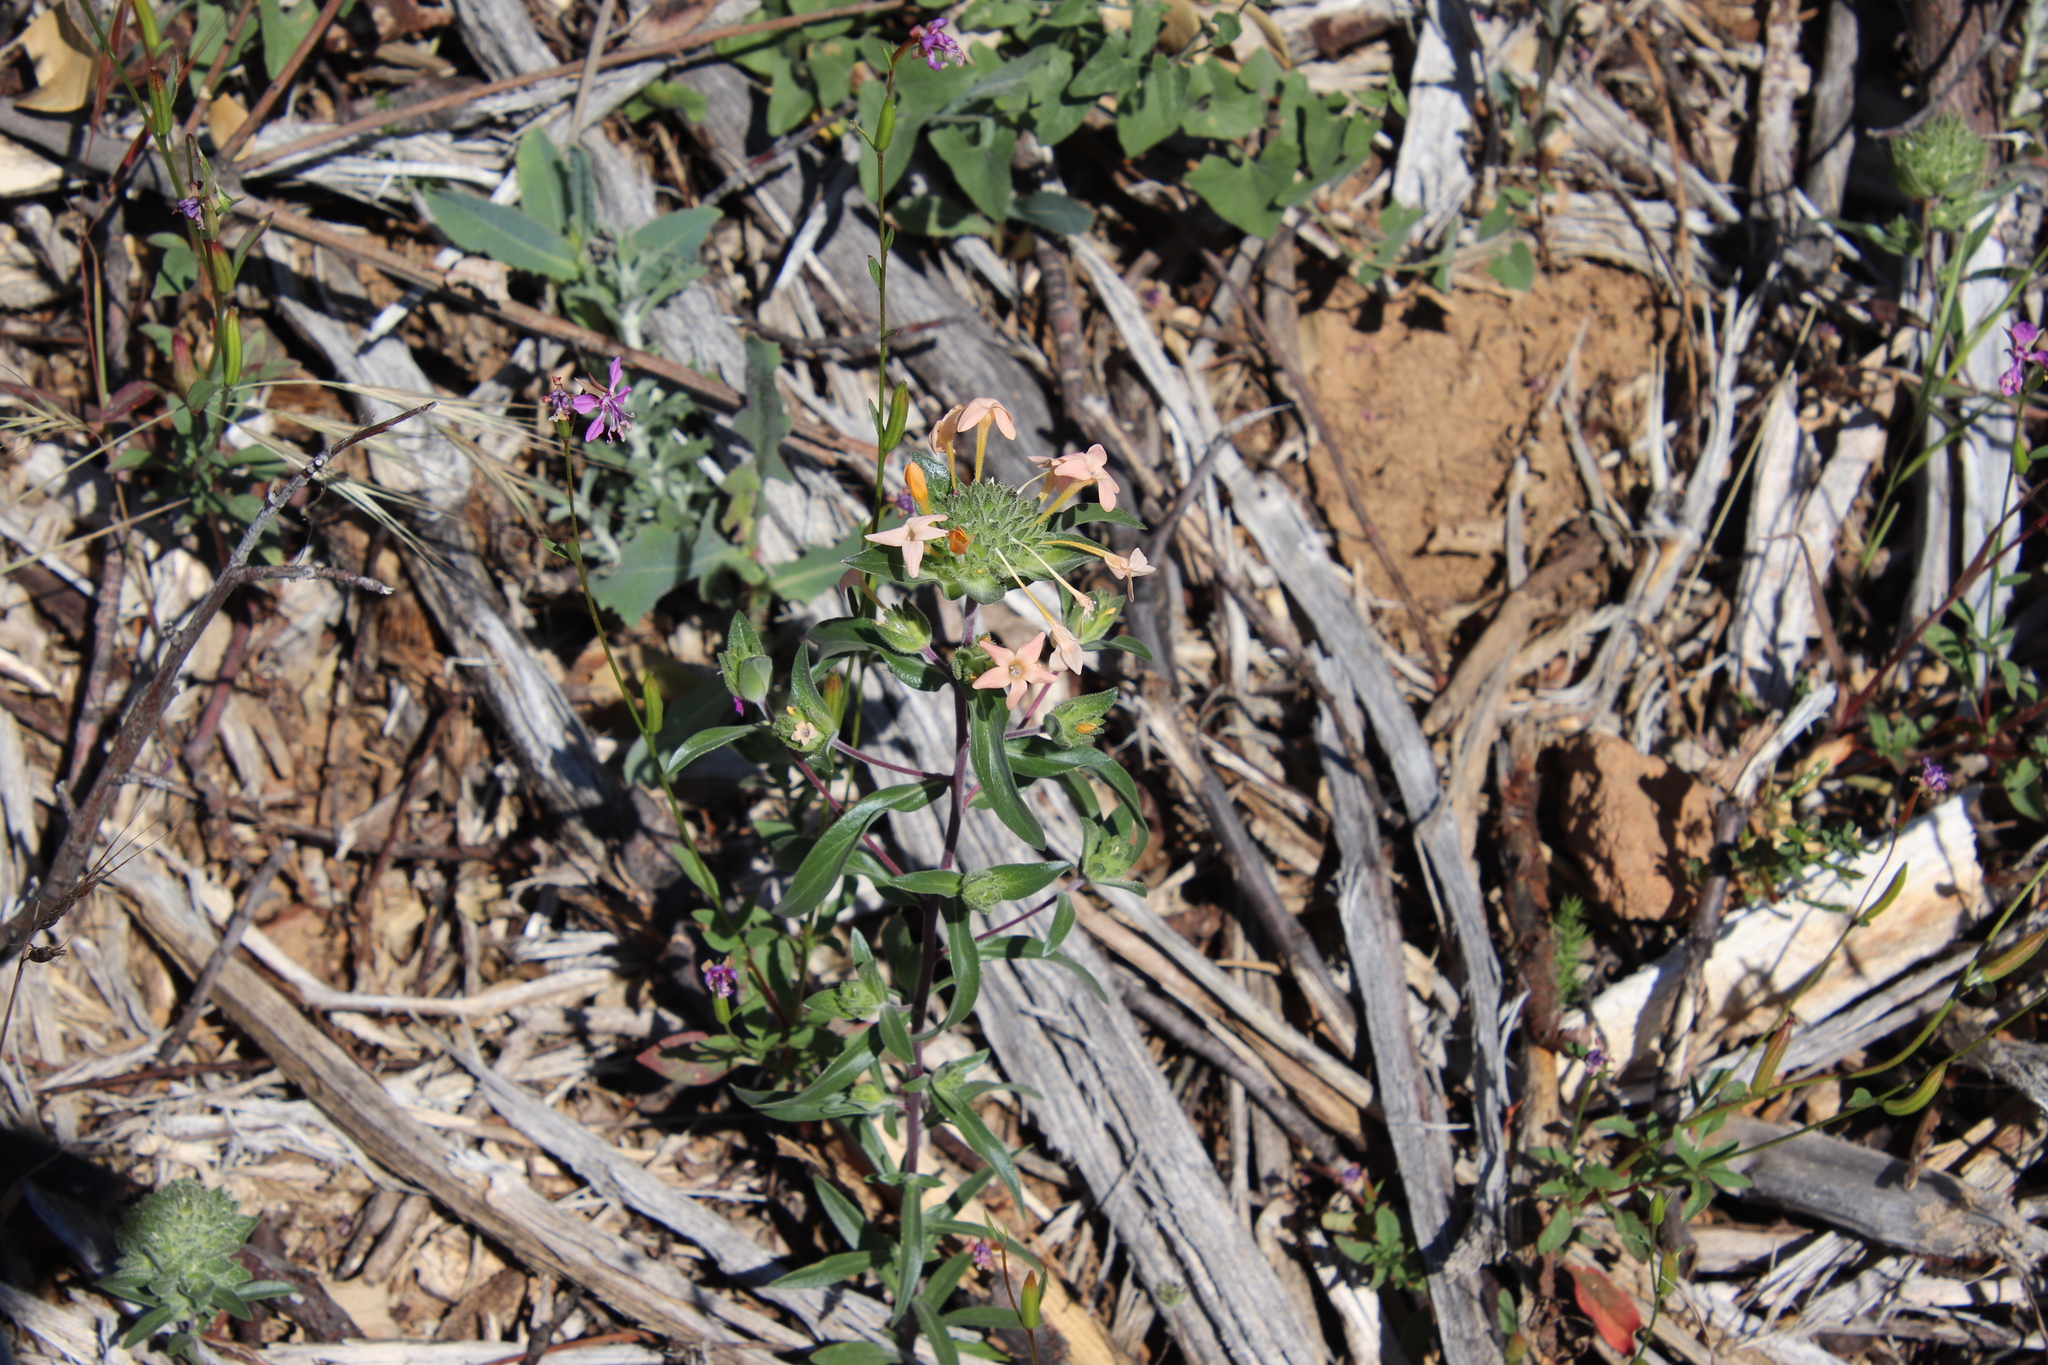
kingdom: Plantae
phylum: Tracheophyta
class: Magnoliopsida
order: Ericales
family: Polemoniaceae
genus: Collomia
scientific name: Collomia grandiflora
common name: California strawflower
